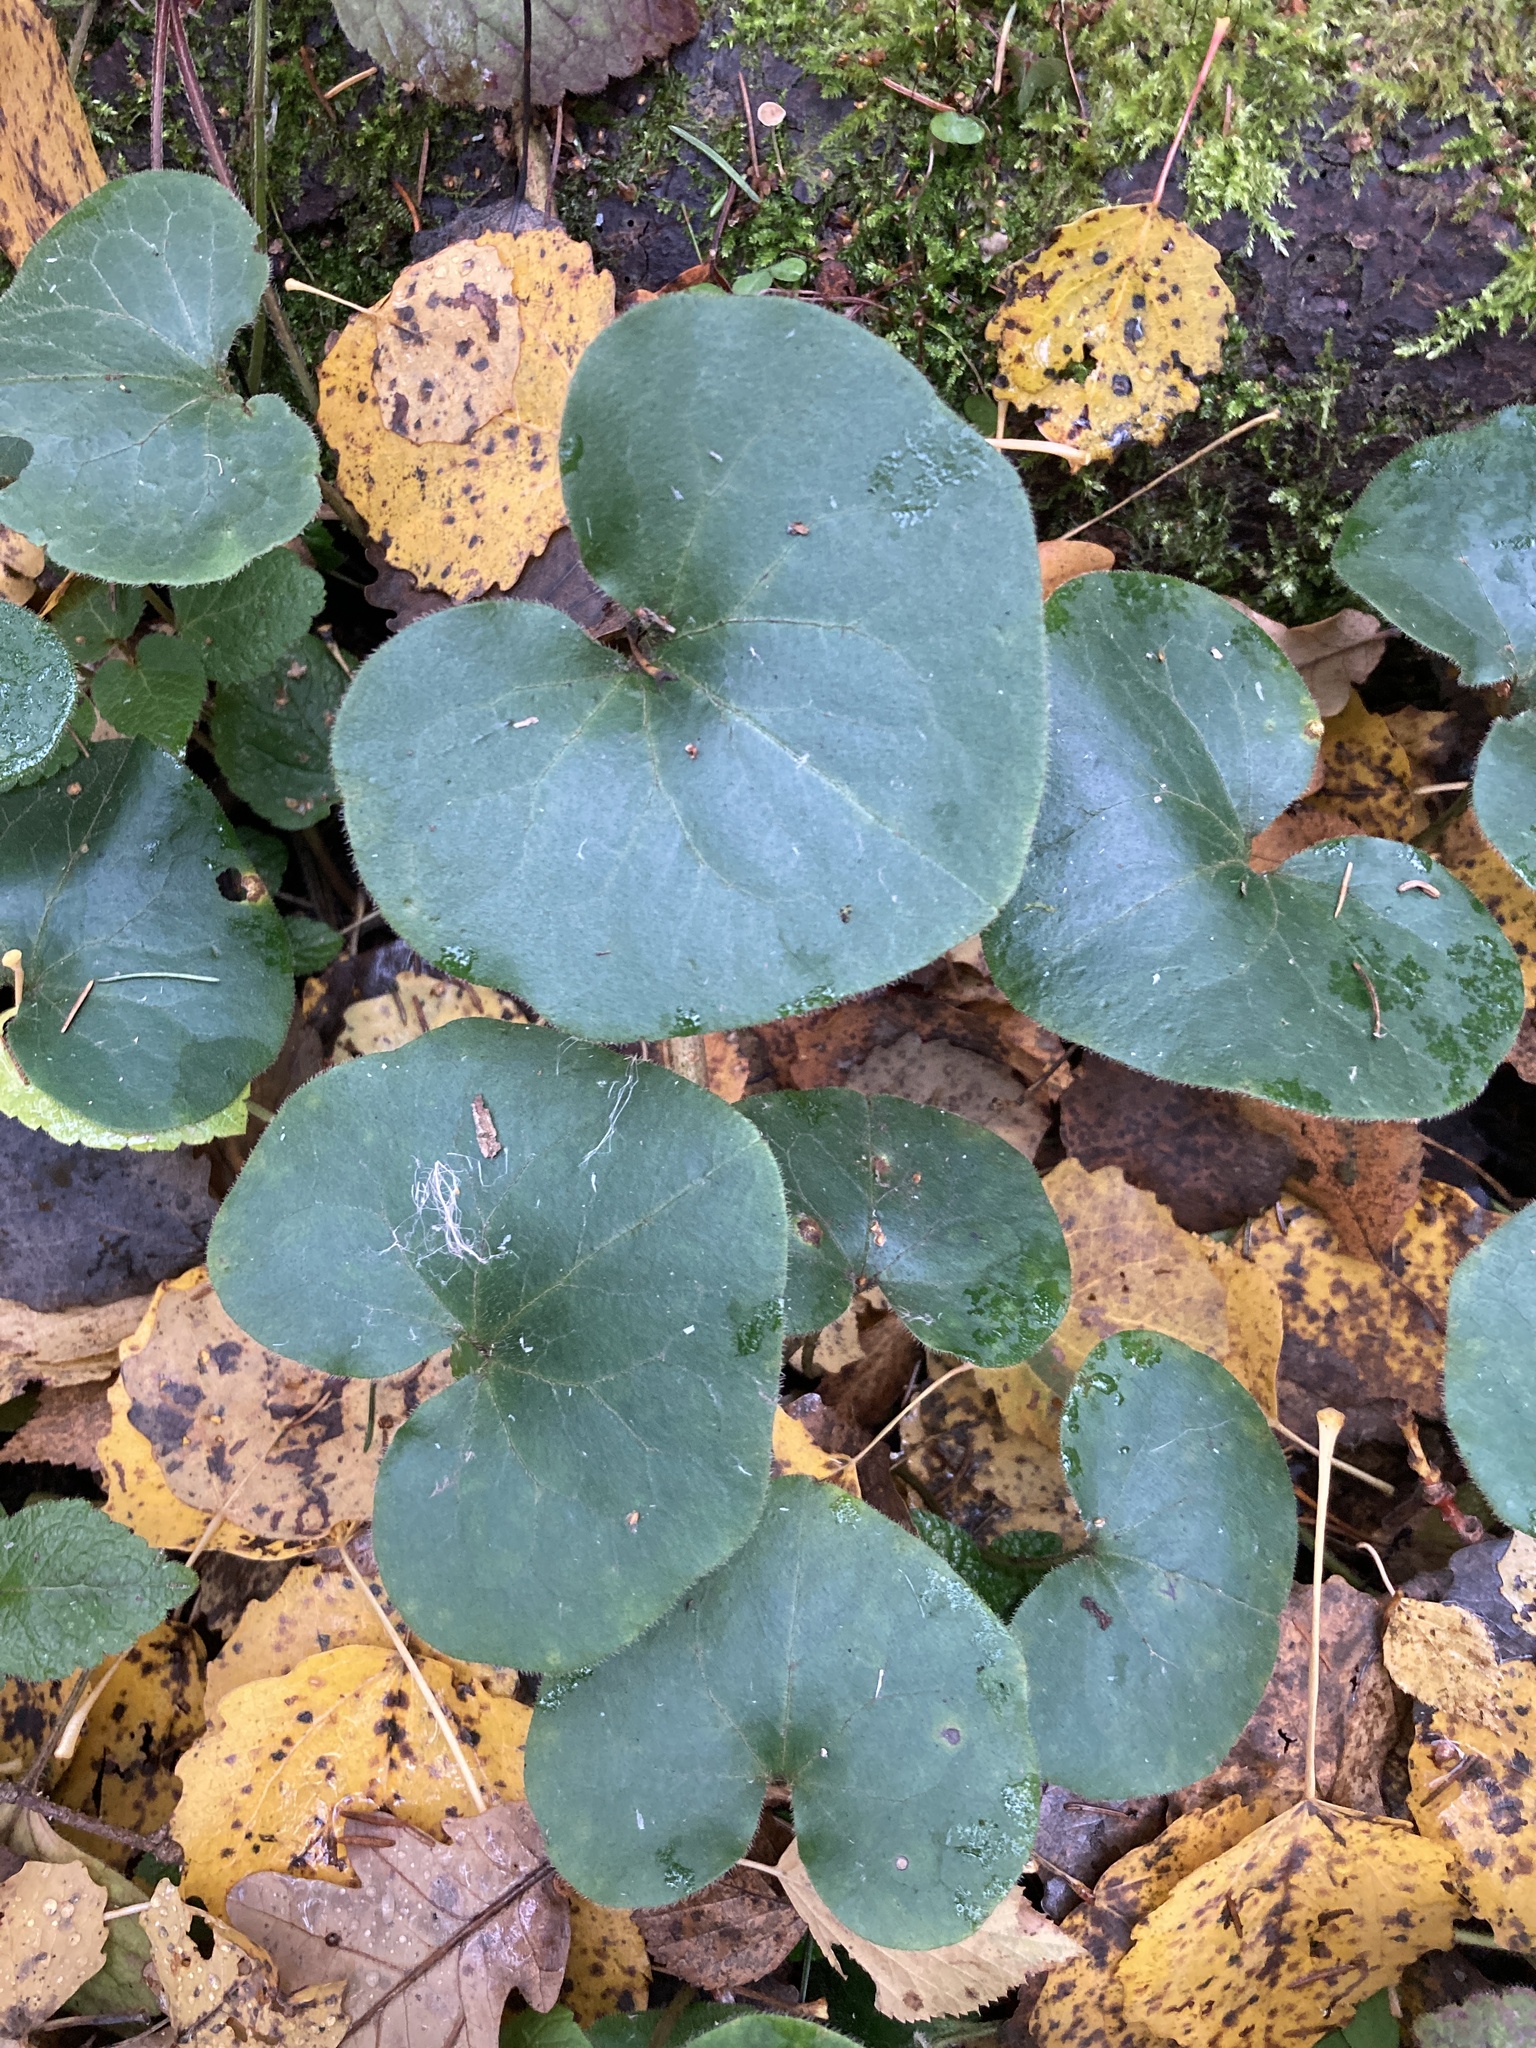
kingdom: Plantae
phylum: Tracheophyta
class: Magnoliopsida
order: Piperales
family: Aristolochiaceae
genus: Asarum
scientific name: Asarum europaeum
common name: Asarabacca
